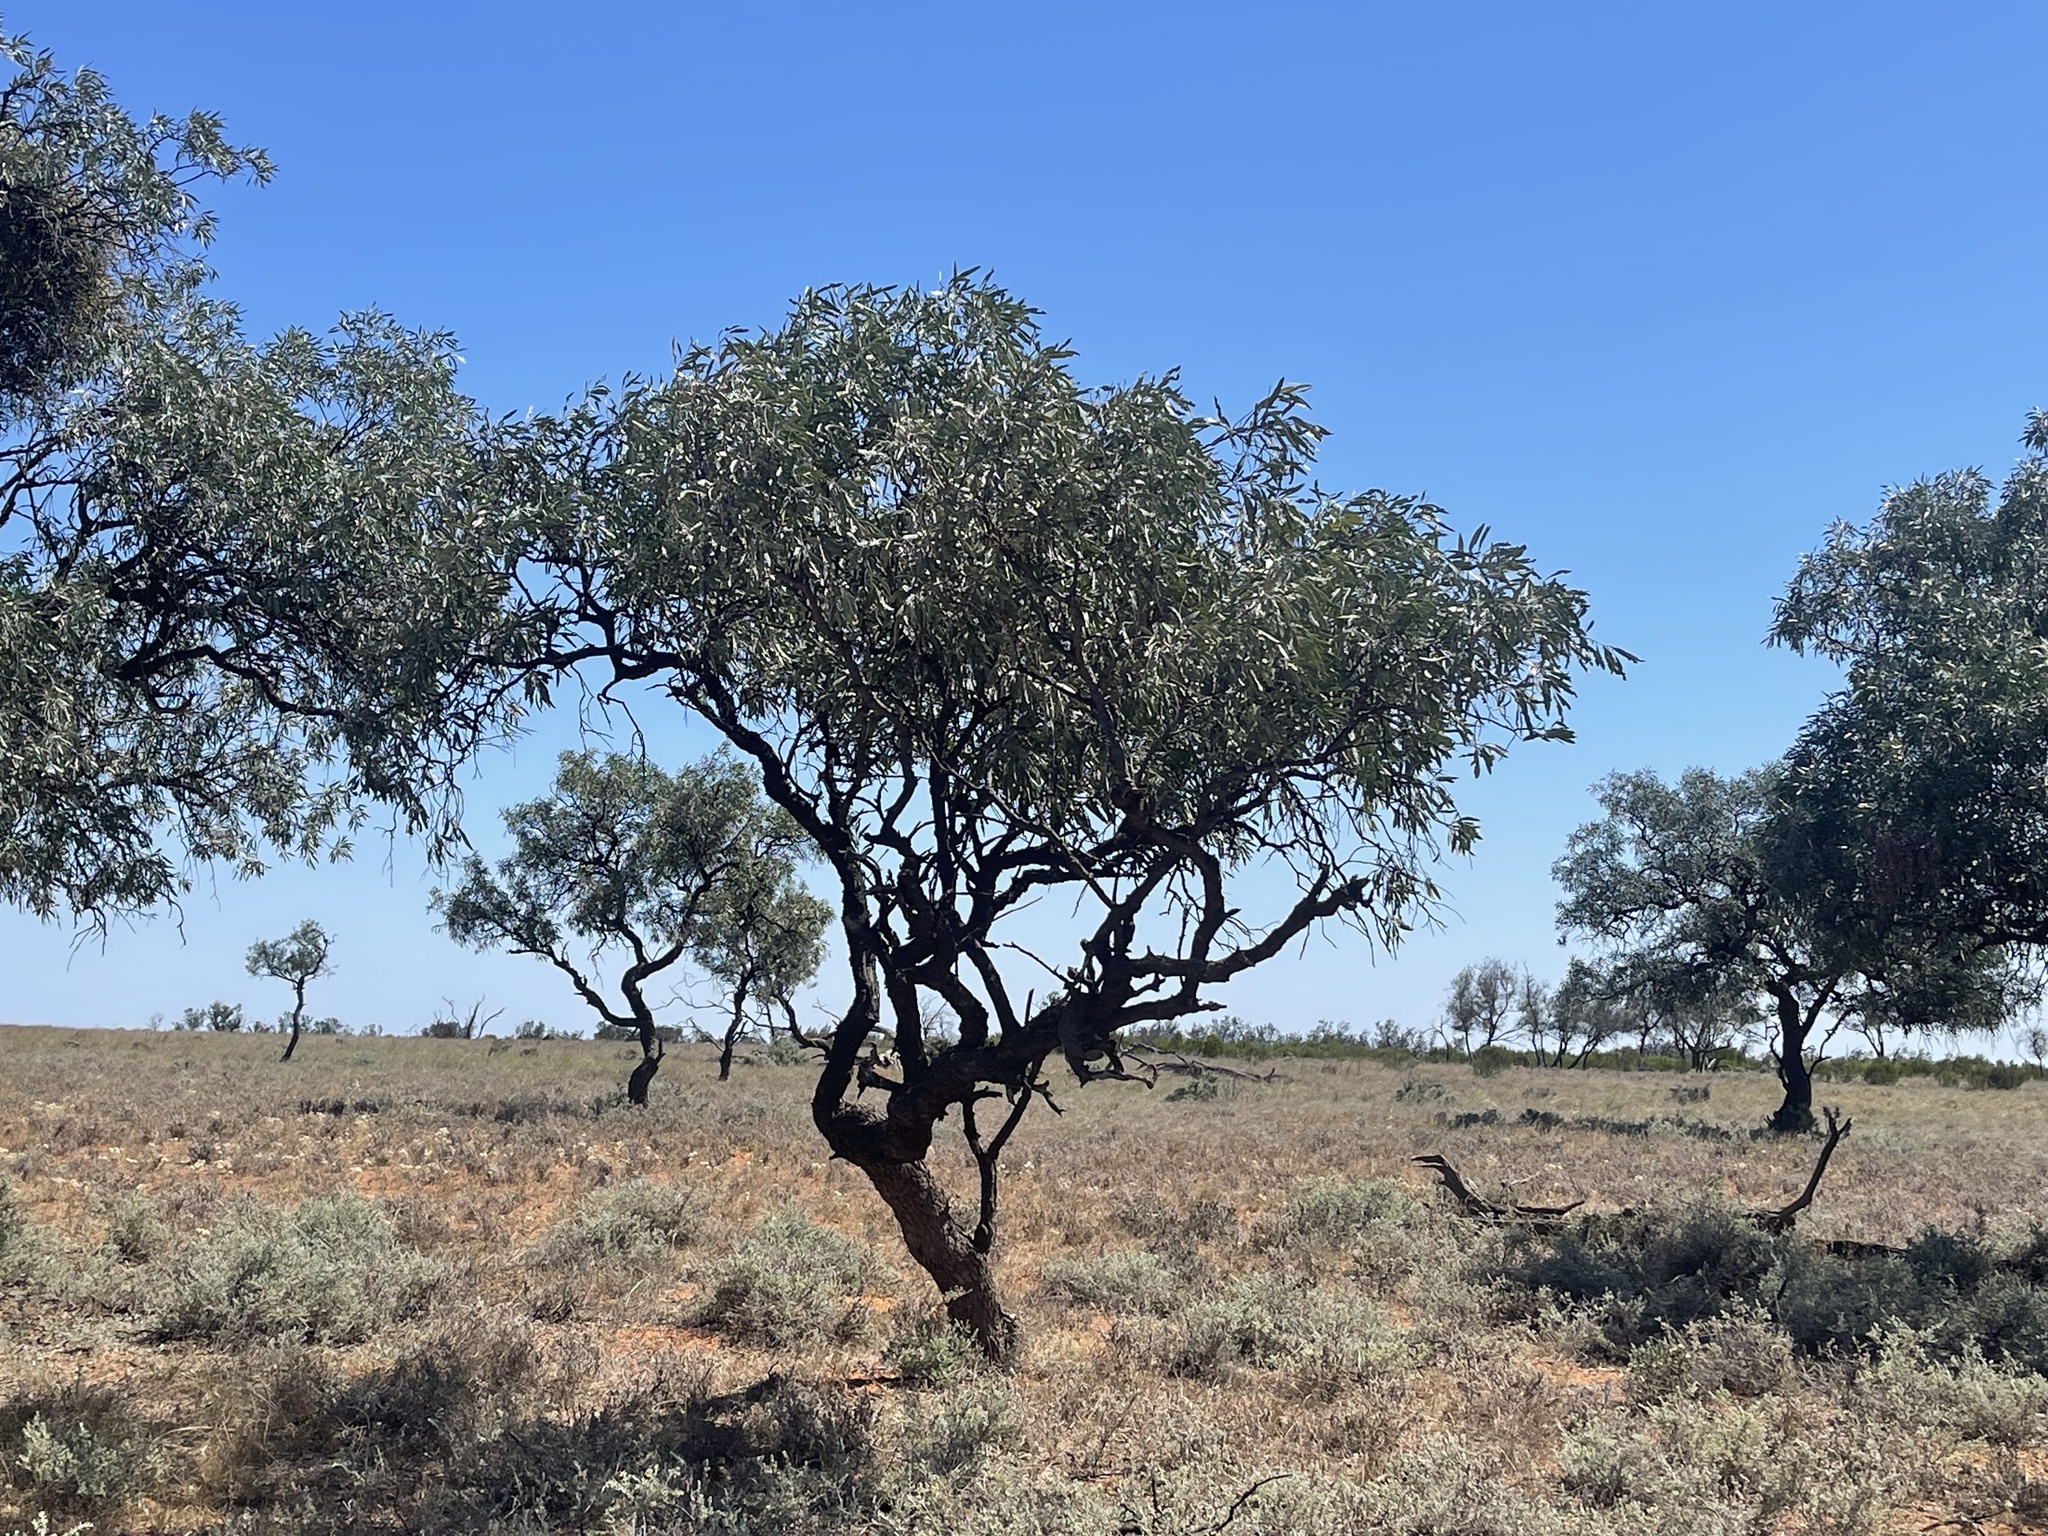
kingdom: Plantae
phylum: Tracheophyta
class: Magnoliopsida
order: Sapindales
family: Sapindaceae
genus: Alectryon
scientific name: Alectryon oleifolius
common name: Australian rosewood
